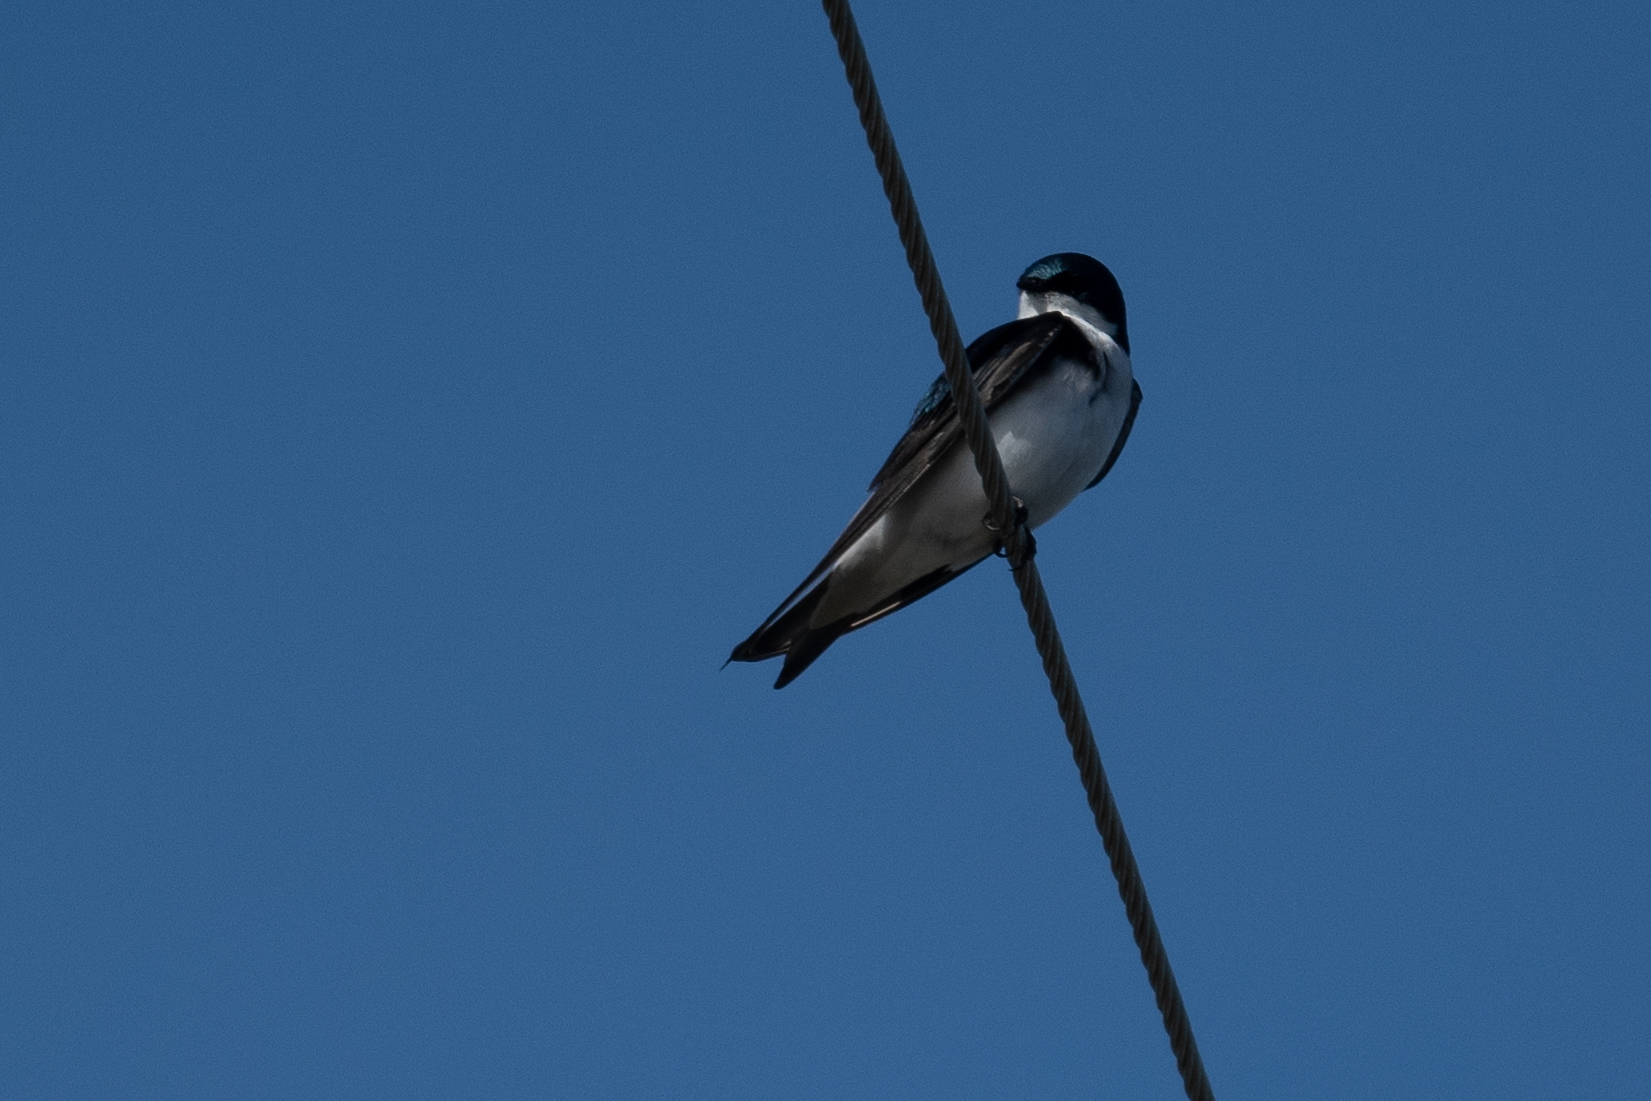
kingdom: Animalia
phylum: Chordata
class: Aves
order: Passeriformes
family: Hirundinidae
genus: Tachycineta
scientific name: Tachycineta bicolor
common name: Tree swallow
